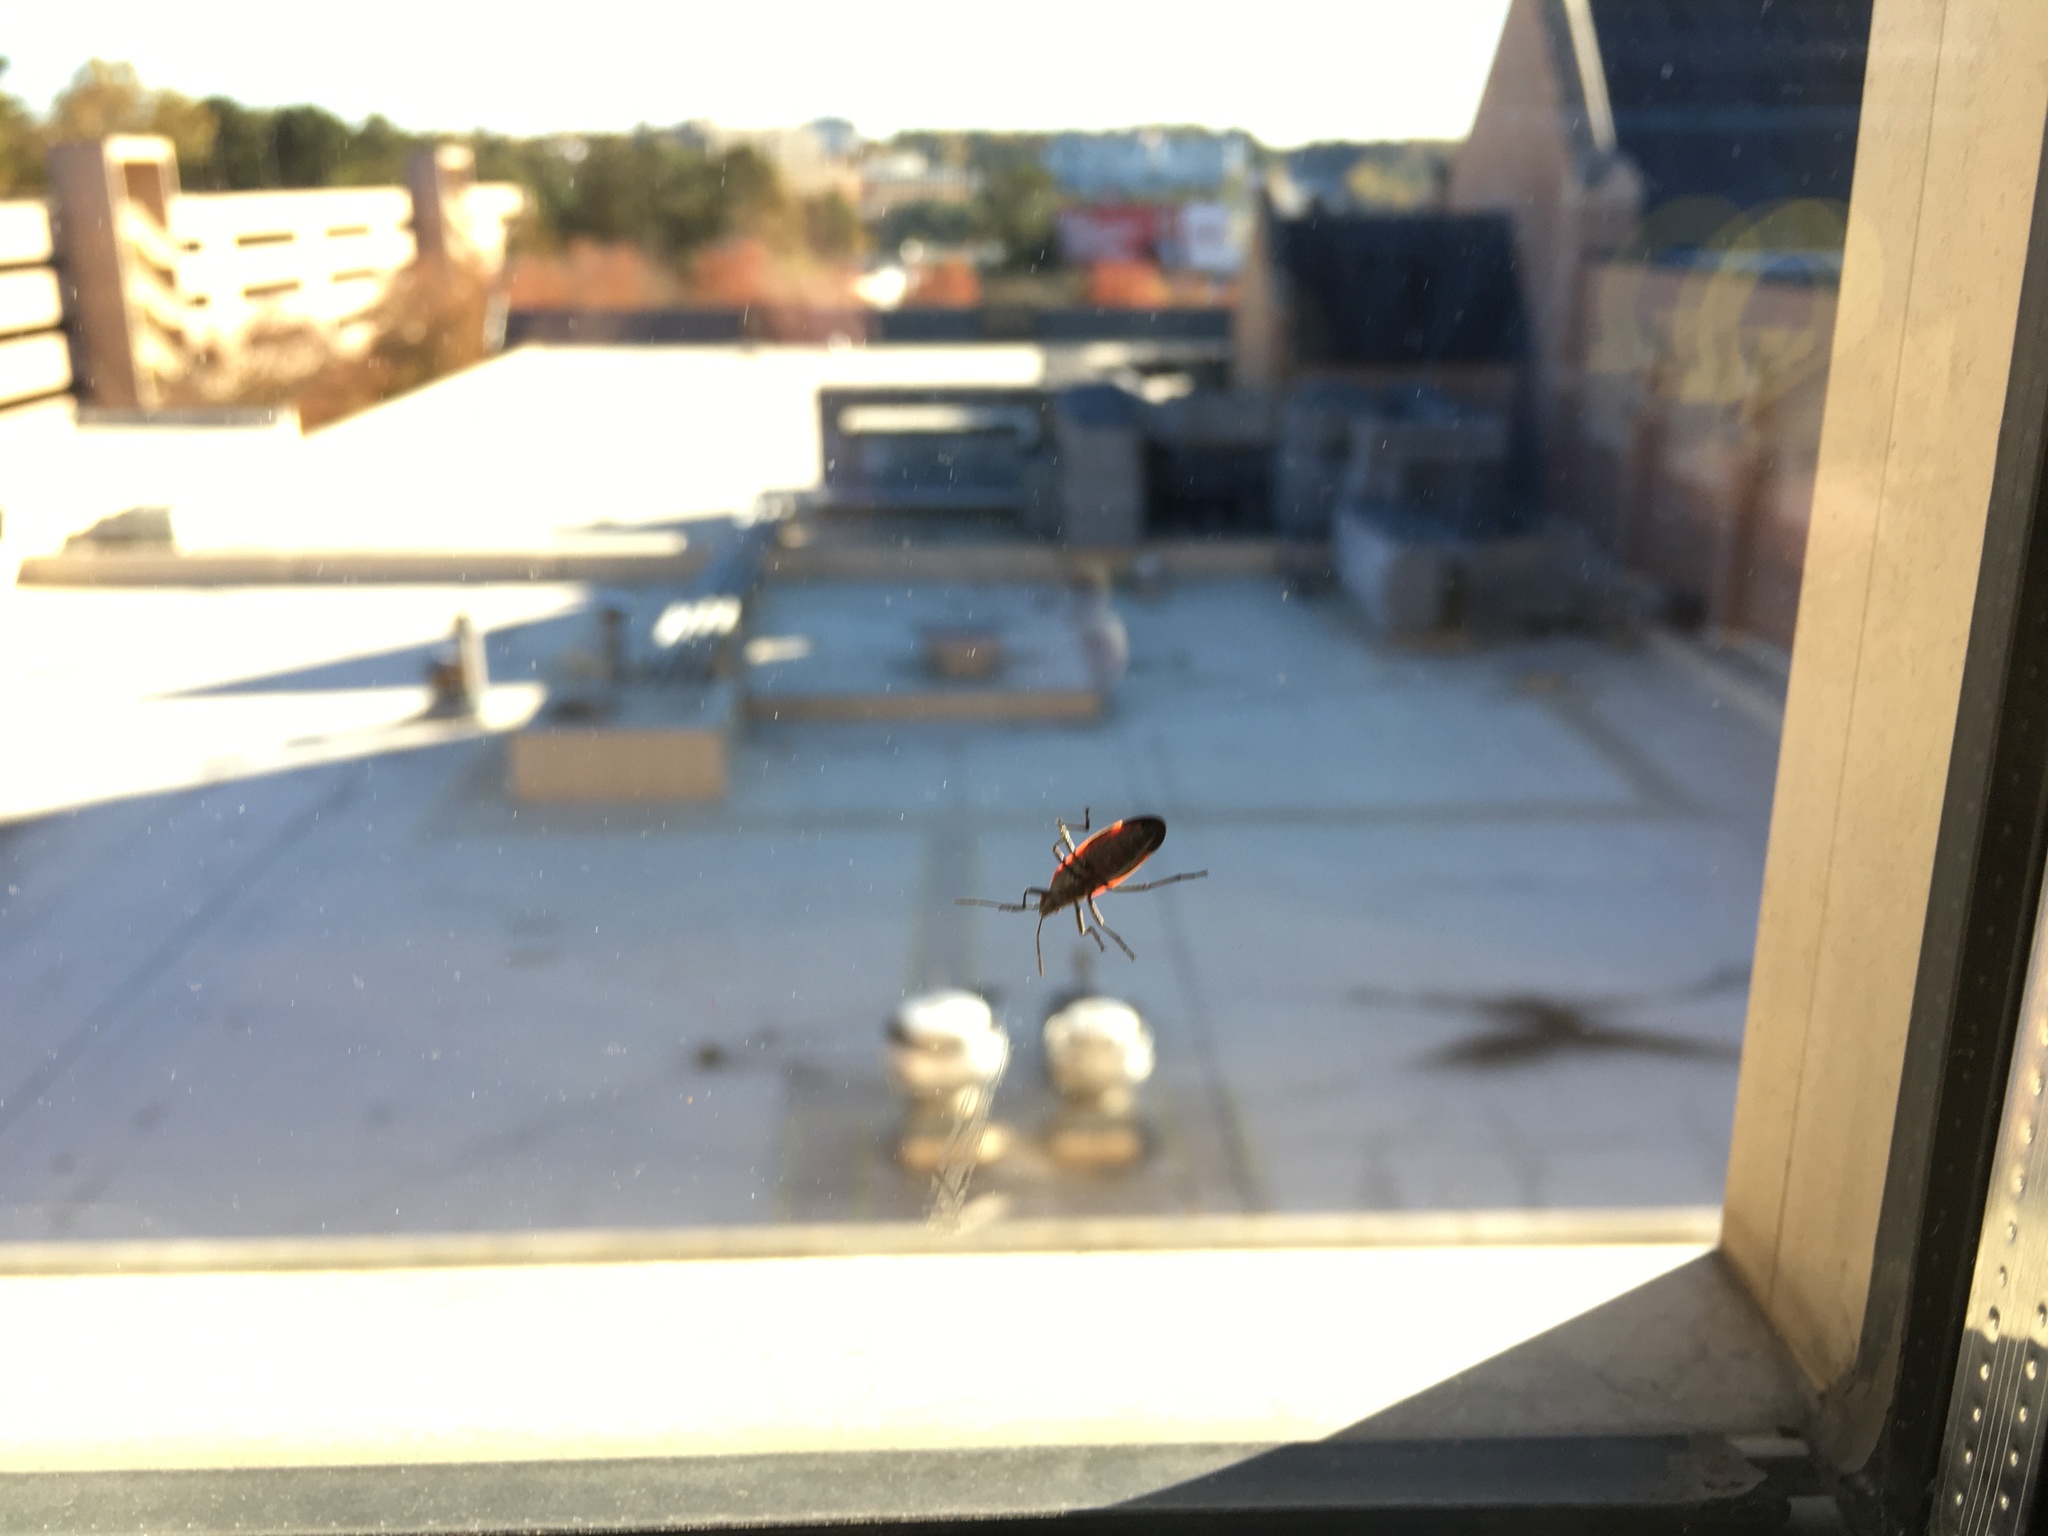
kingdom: Animalia
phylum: Arthropoda
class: Insecta
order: Hemiptera
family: Rhopalidae
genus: Boisea
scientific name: Boisea trivittata
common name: Boxelder bug
